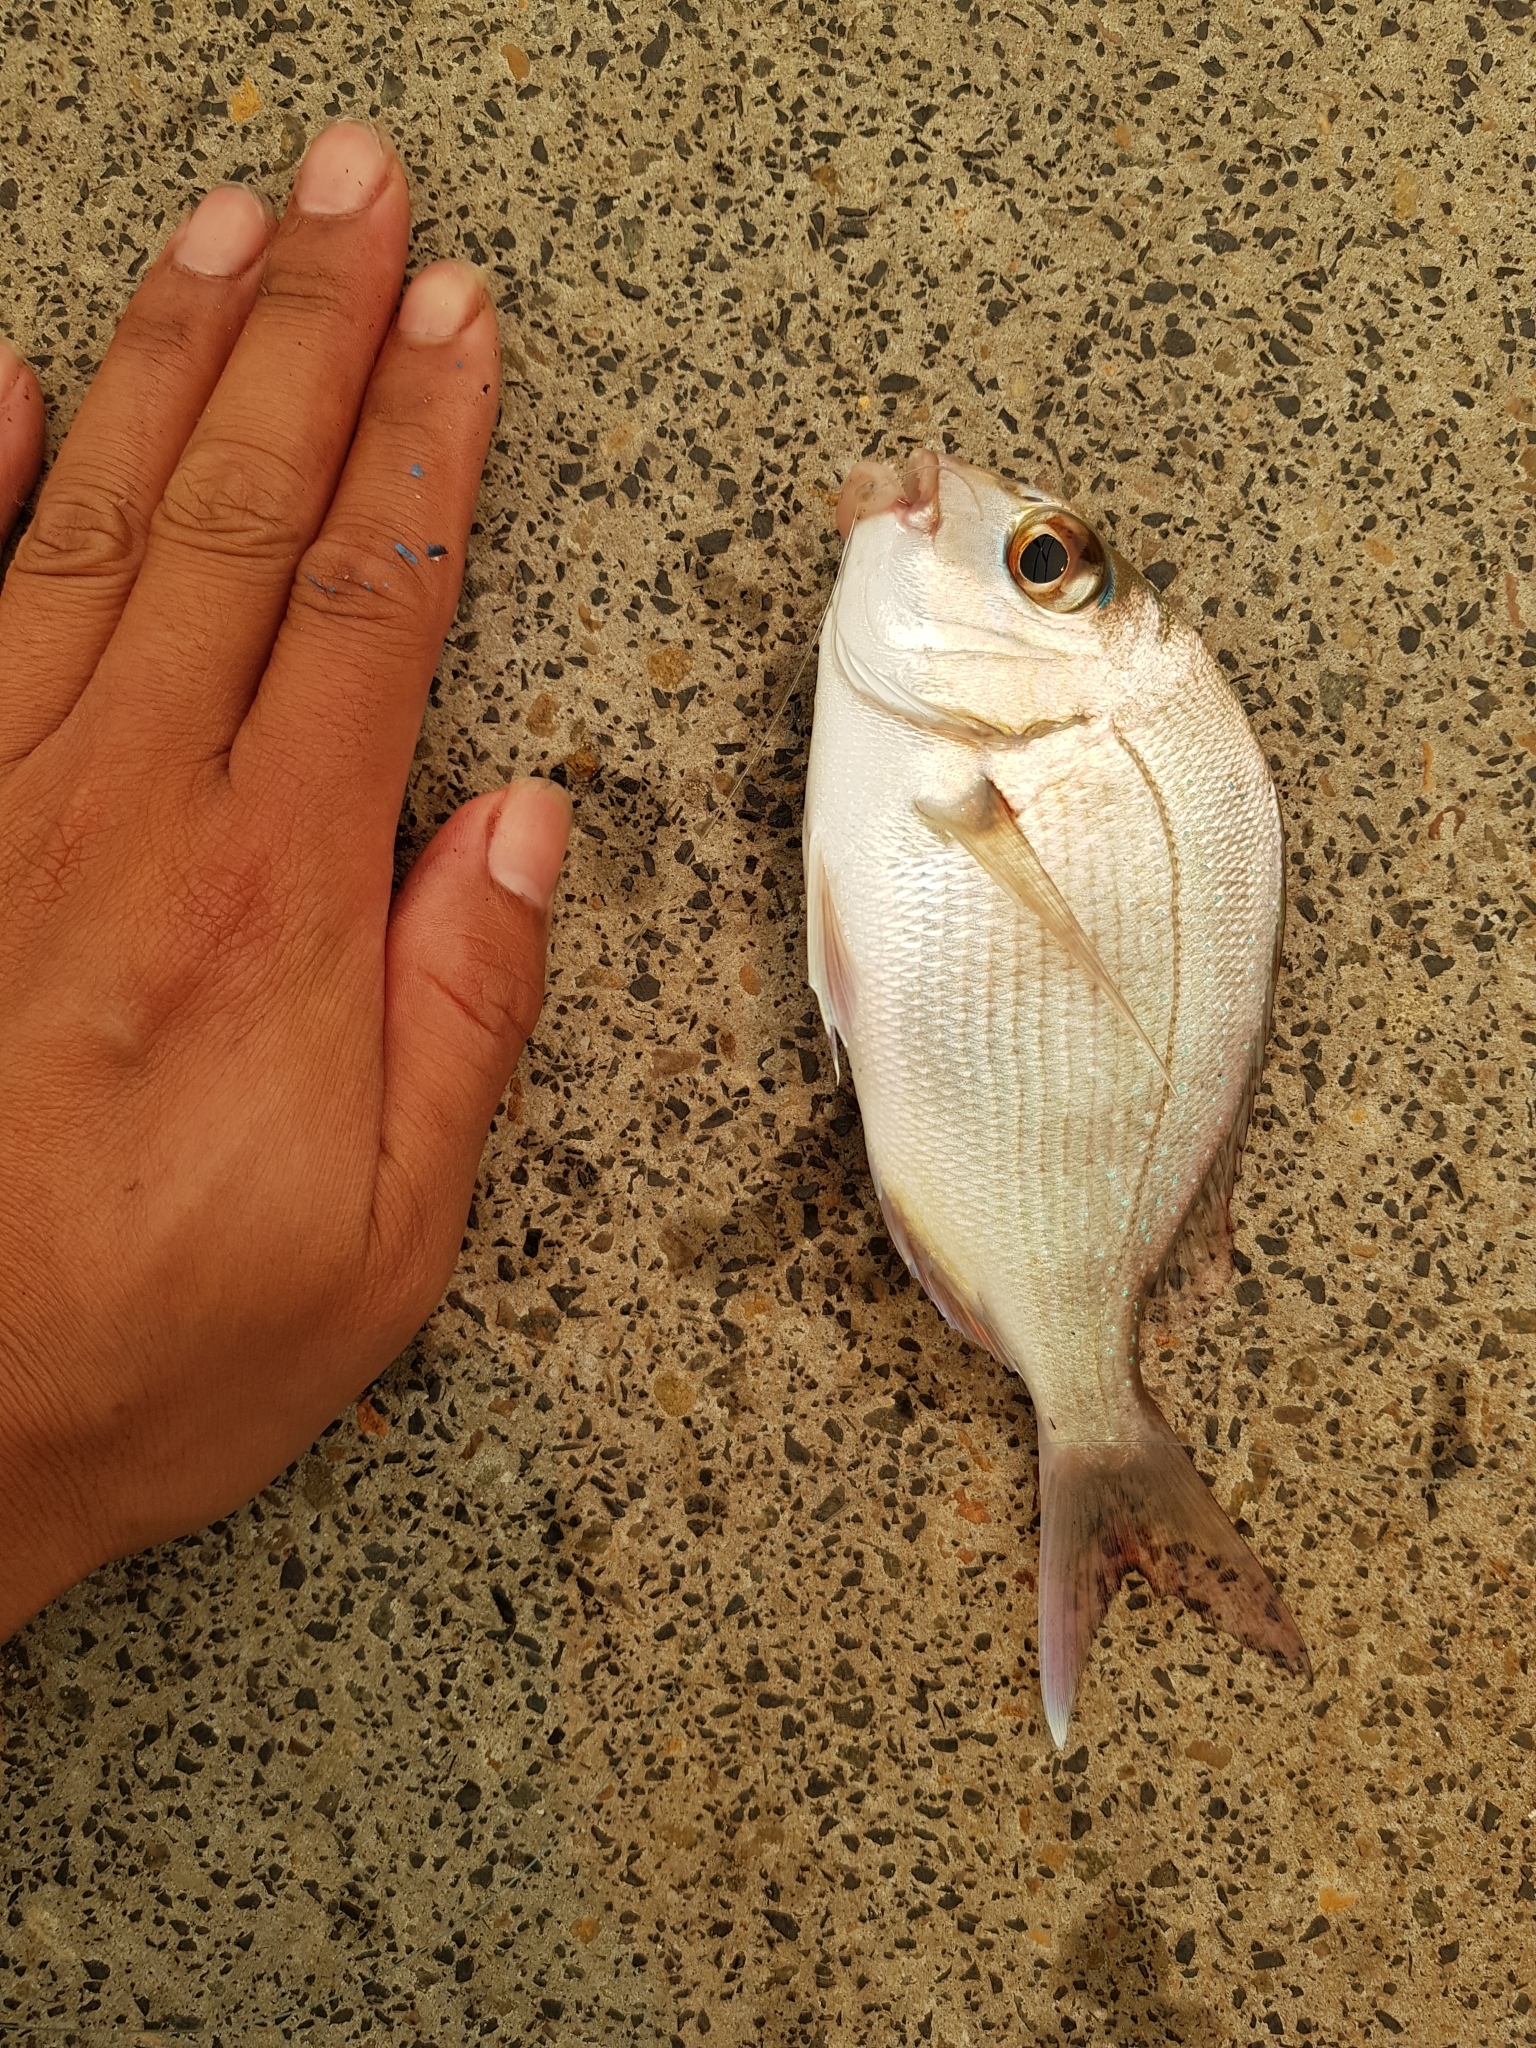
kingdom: Animalia
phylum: Chordata
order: Perciformes
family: Sparidae
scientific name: Sparidae
